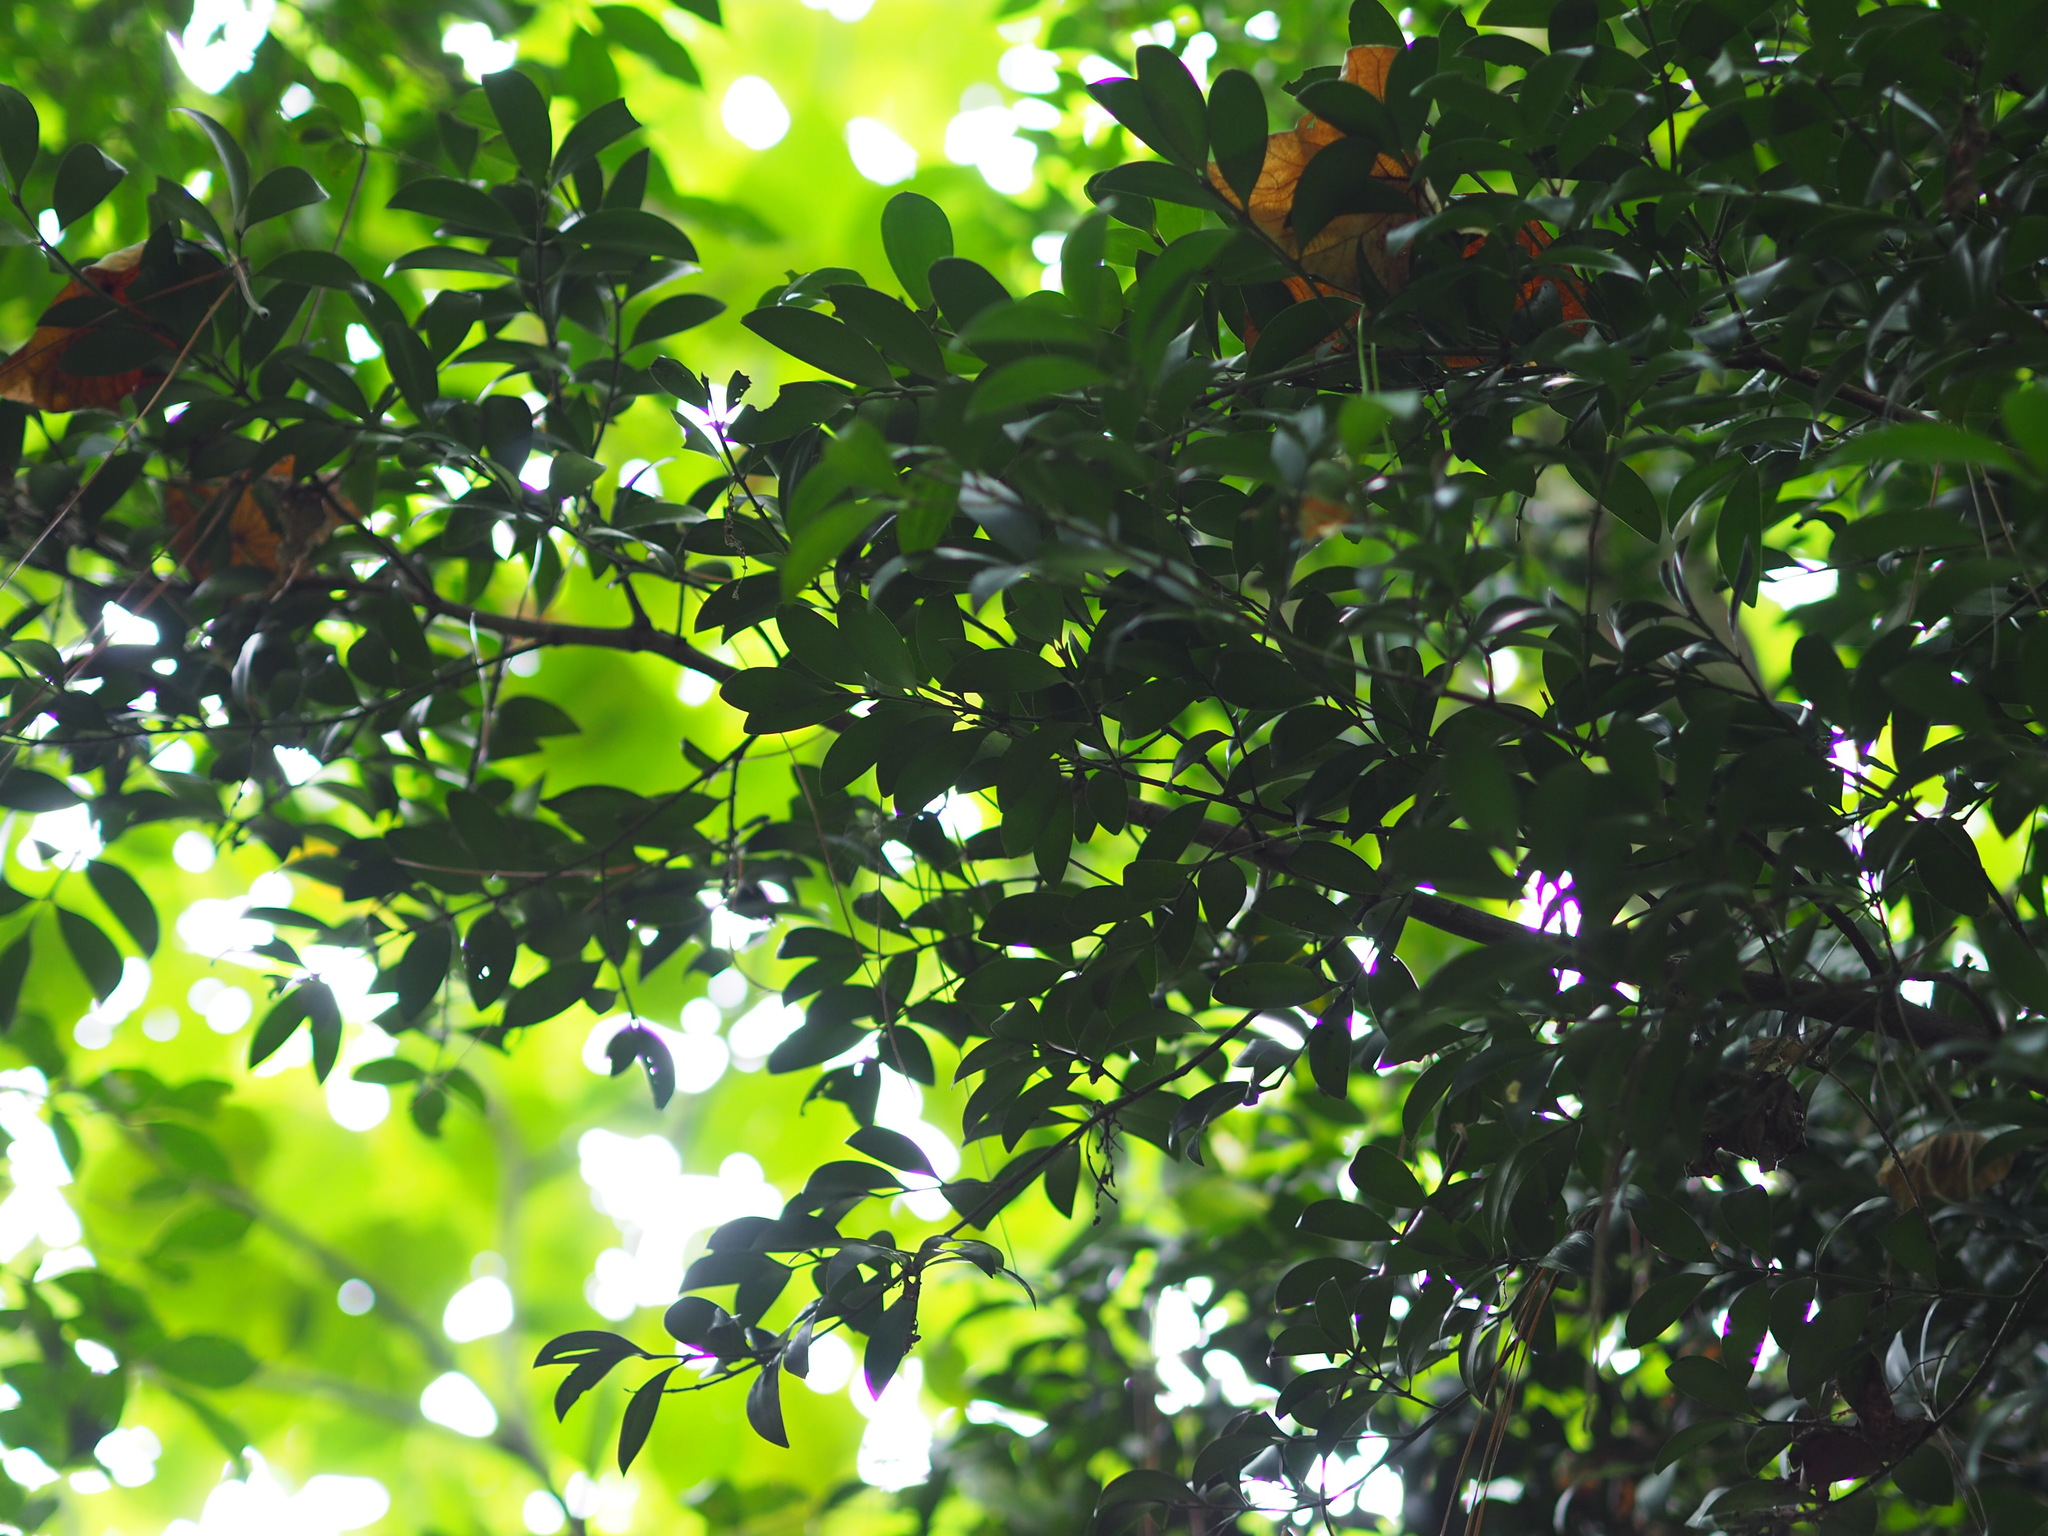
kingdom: Plantae
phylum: Tracheophyta
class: Pinopsida
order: Pinales
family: Podocarpaceae
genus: Nageia
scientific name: Nageia nagi
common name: Kaphal
